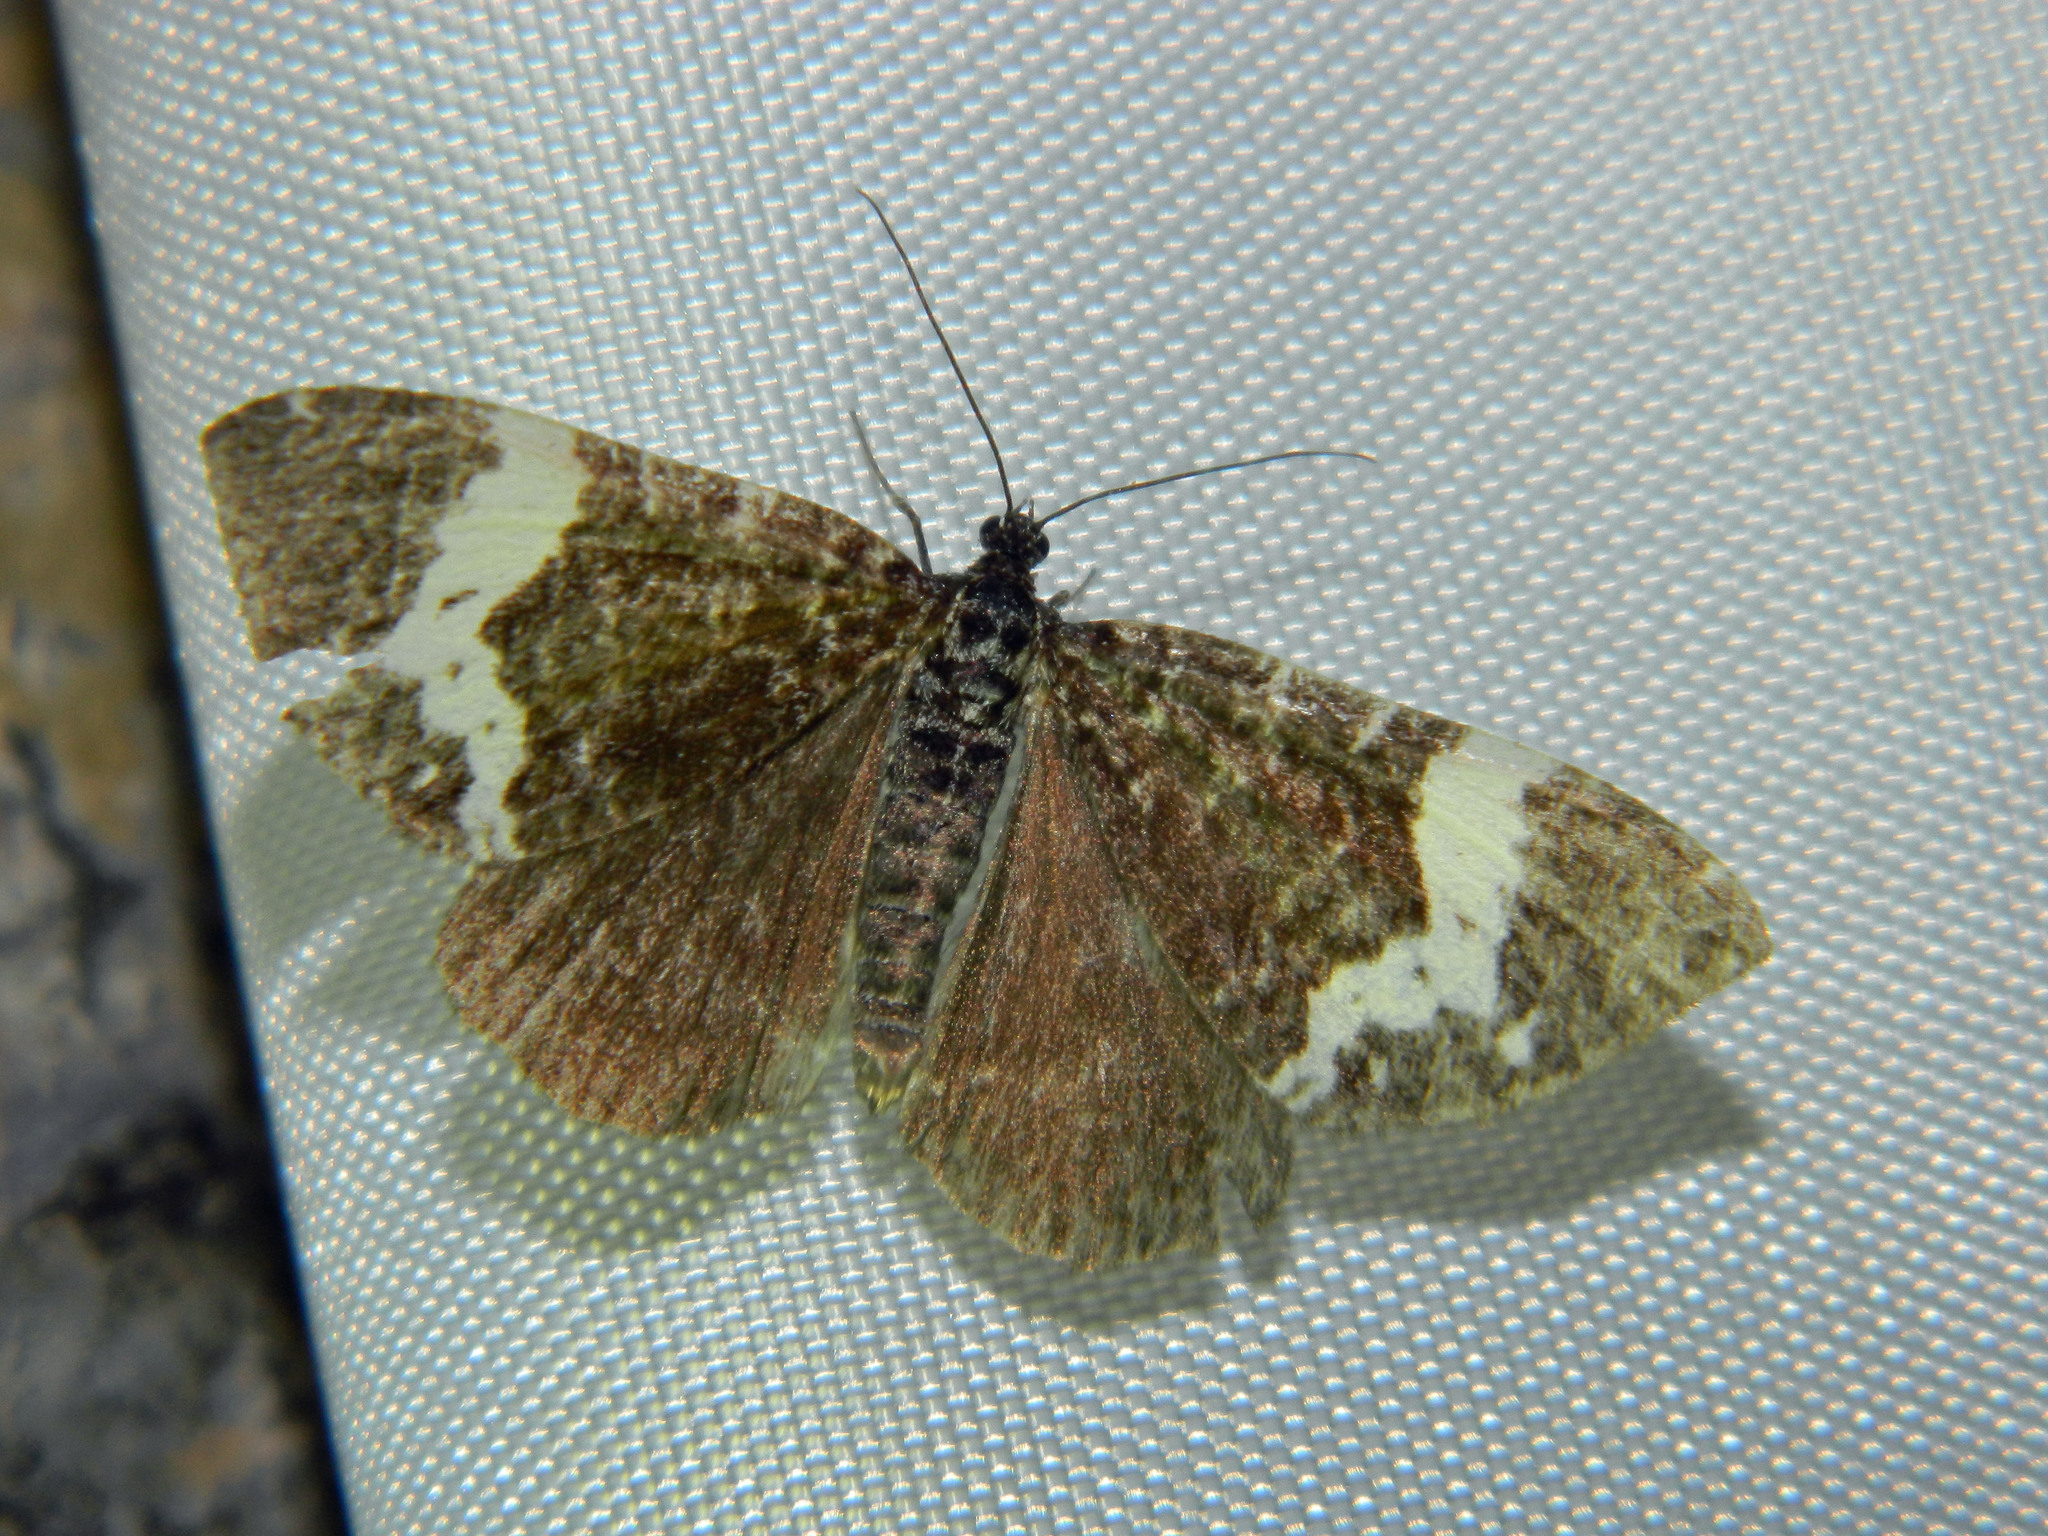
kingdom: Animalia
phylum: Arthropoda
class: Insecta
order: Lepidoptera
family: Geometridae
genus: Rheumaptera
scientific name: Rheumaptera
